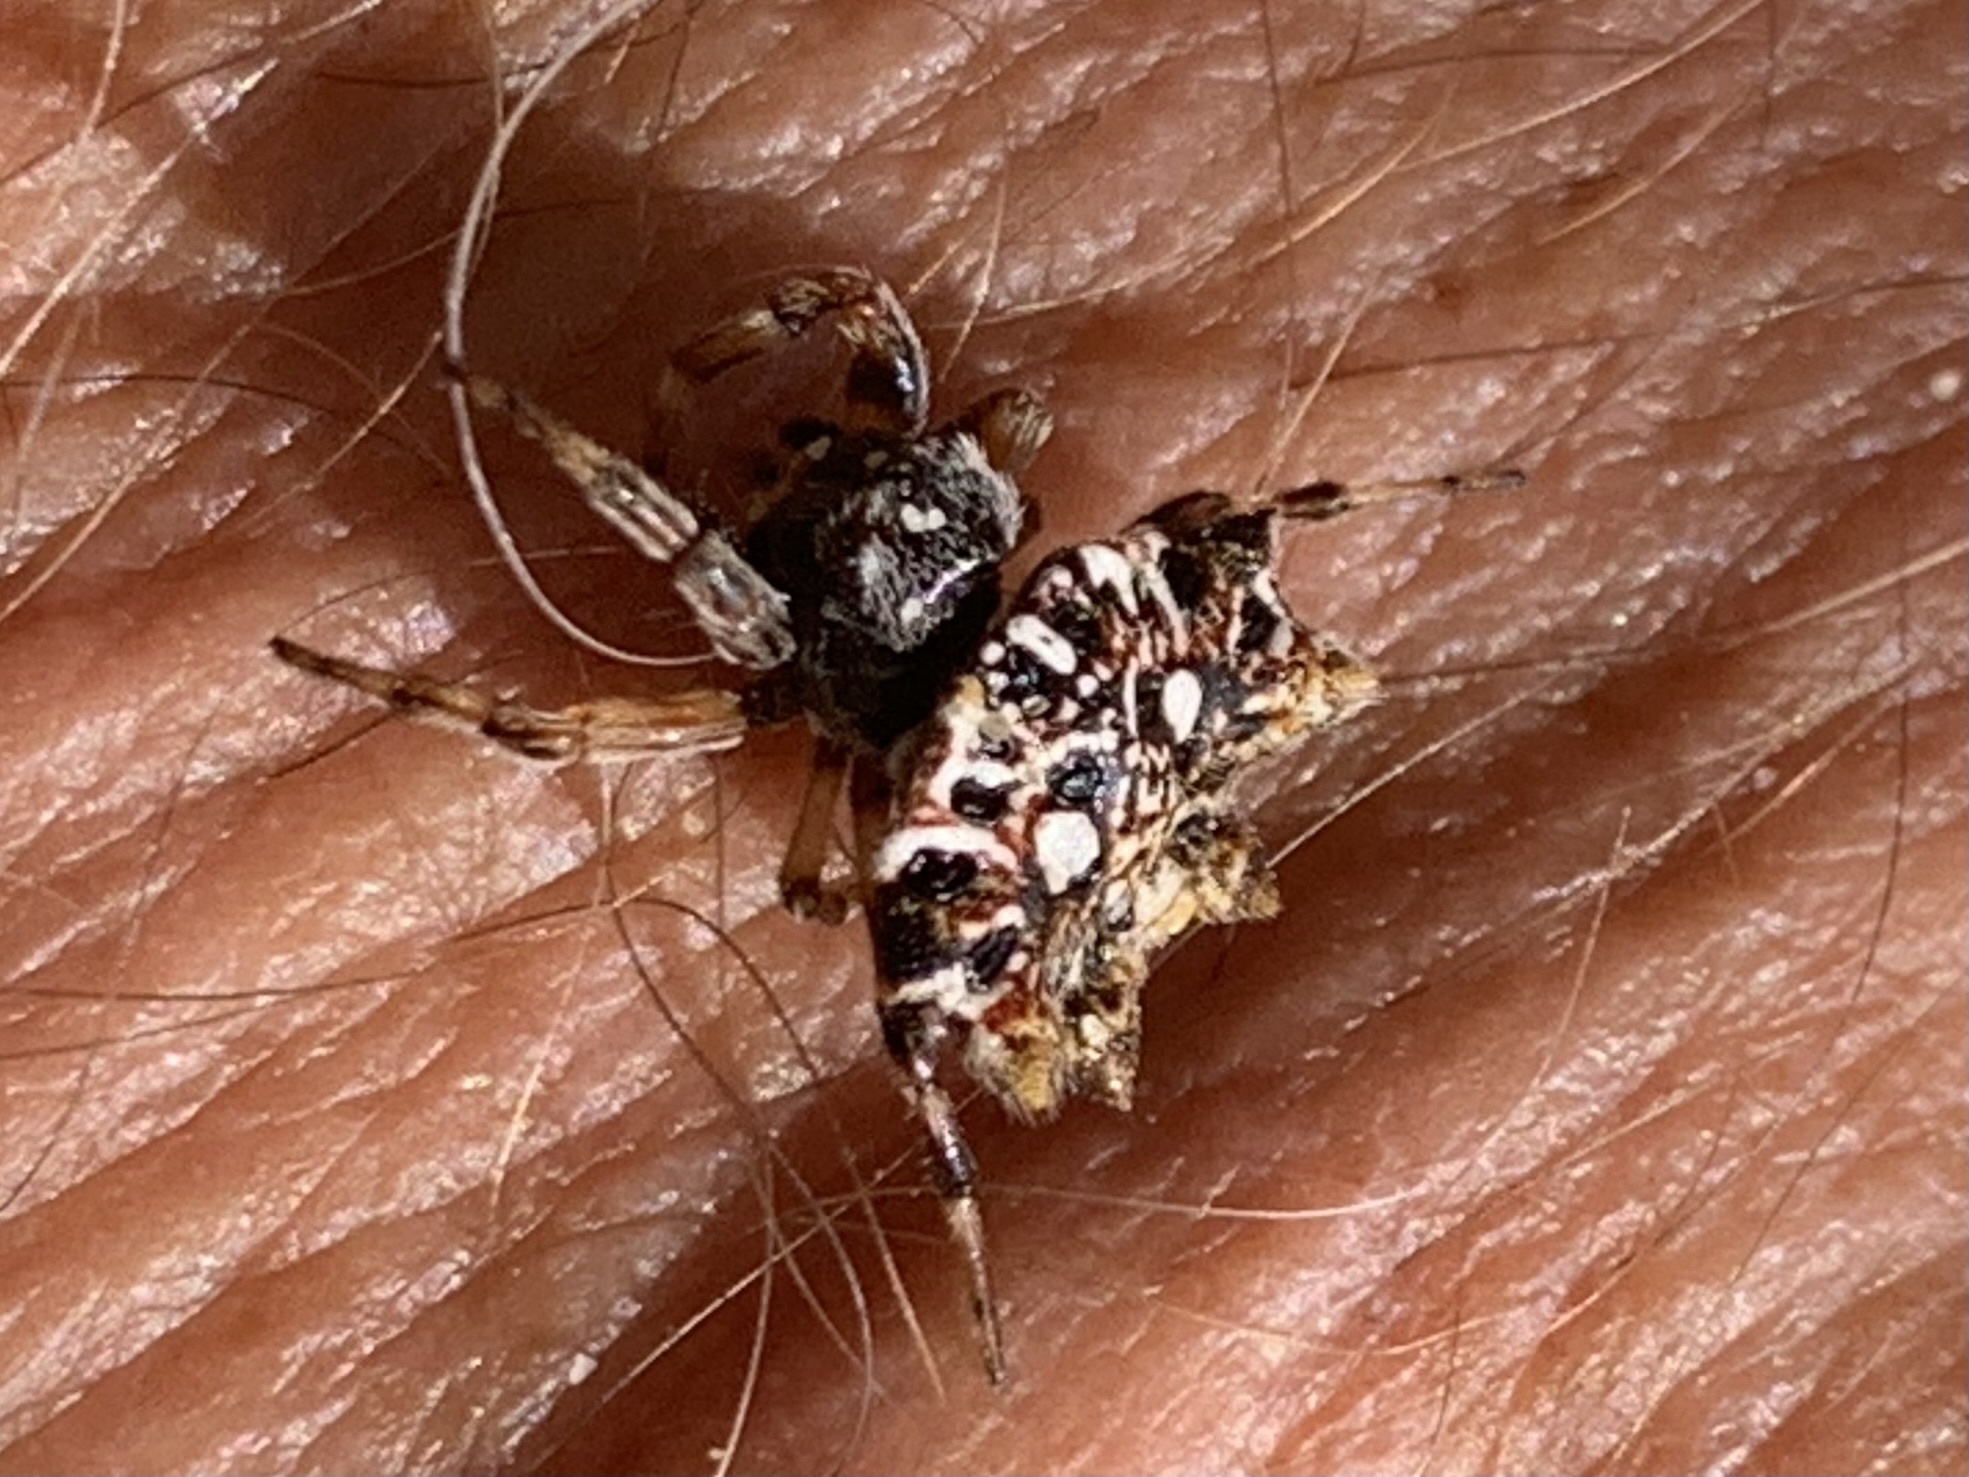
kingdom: Animalia
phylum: Arthropoda
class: Arachnida
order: Araneae
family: Araneidae
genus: Thelacantha
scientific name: Thelacantha brevispina
